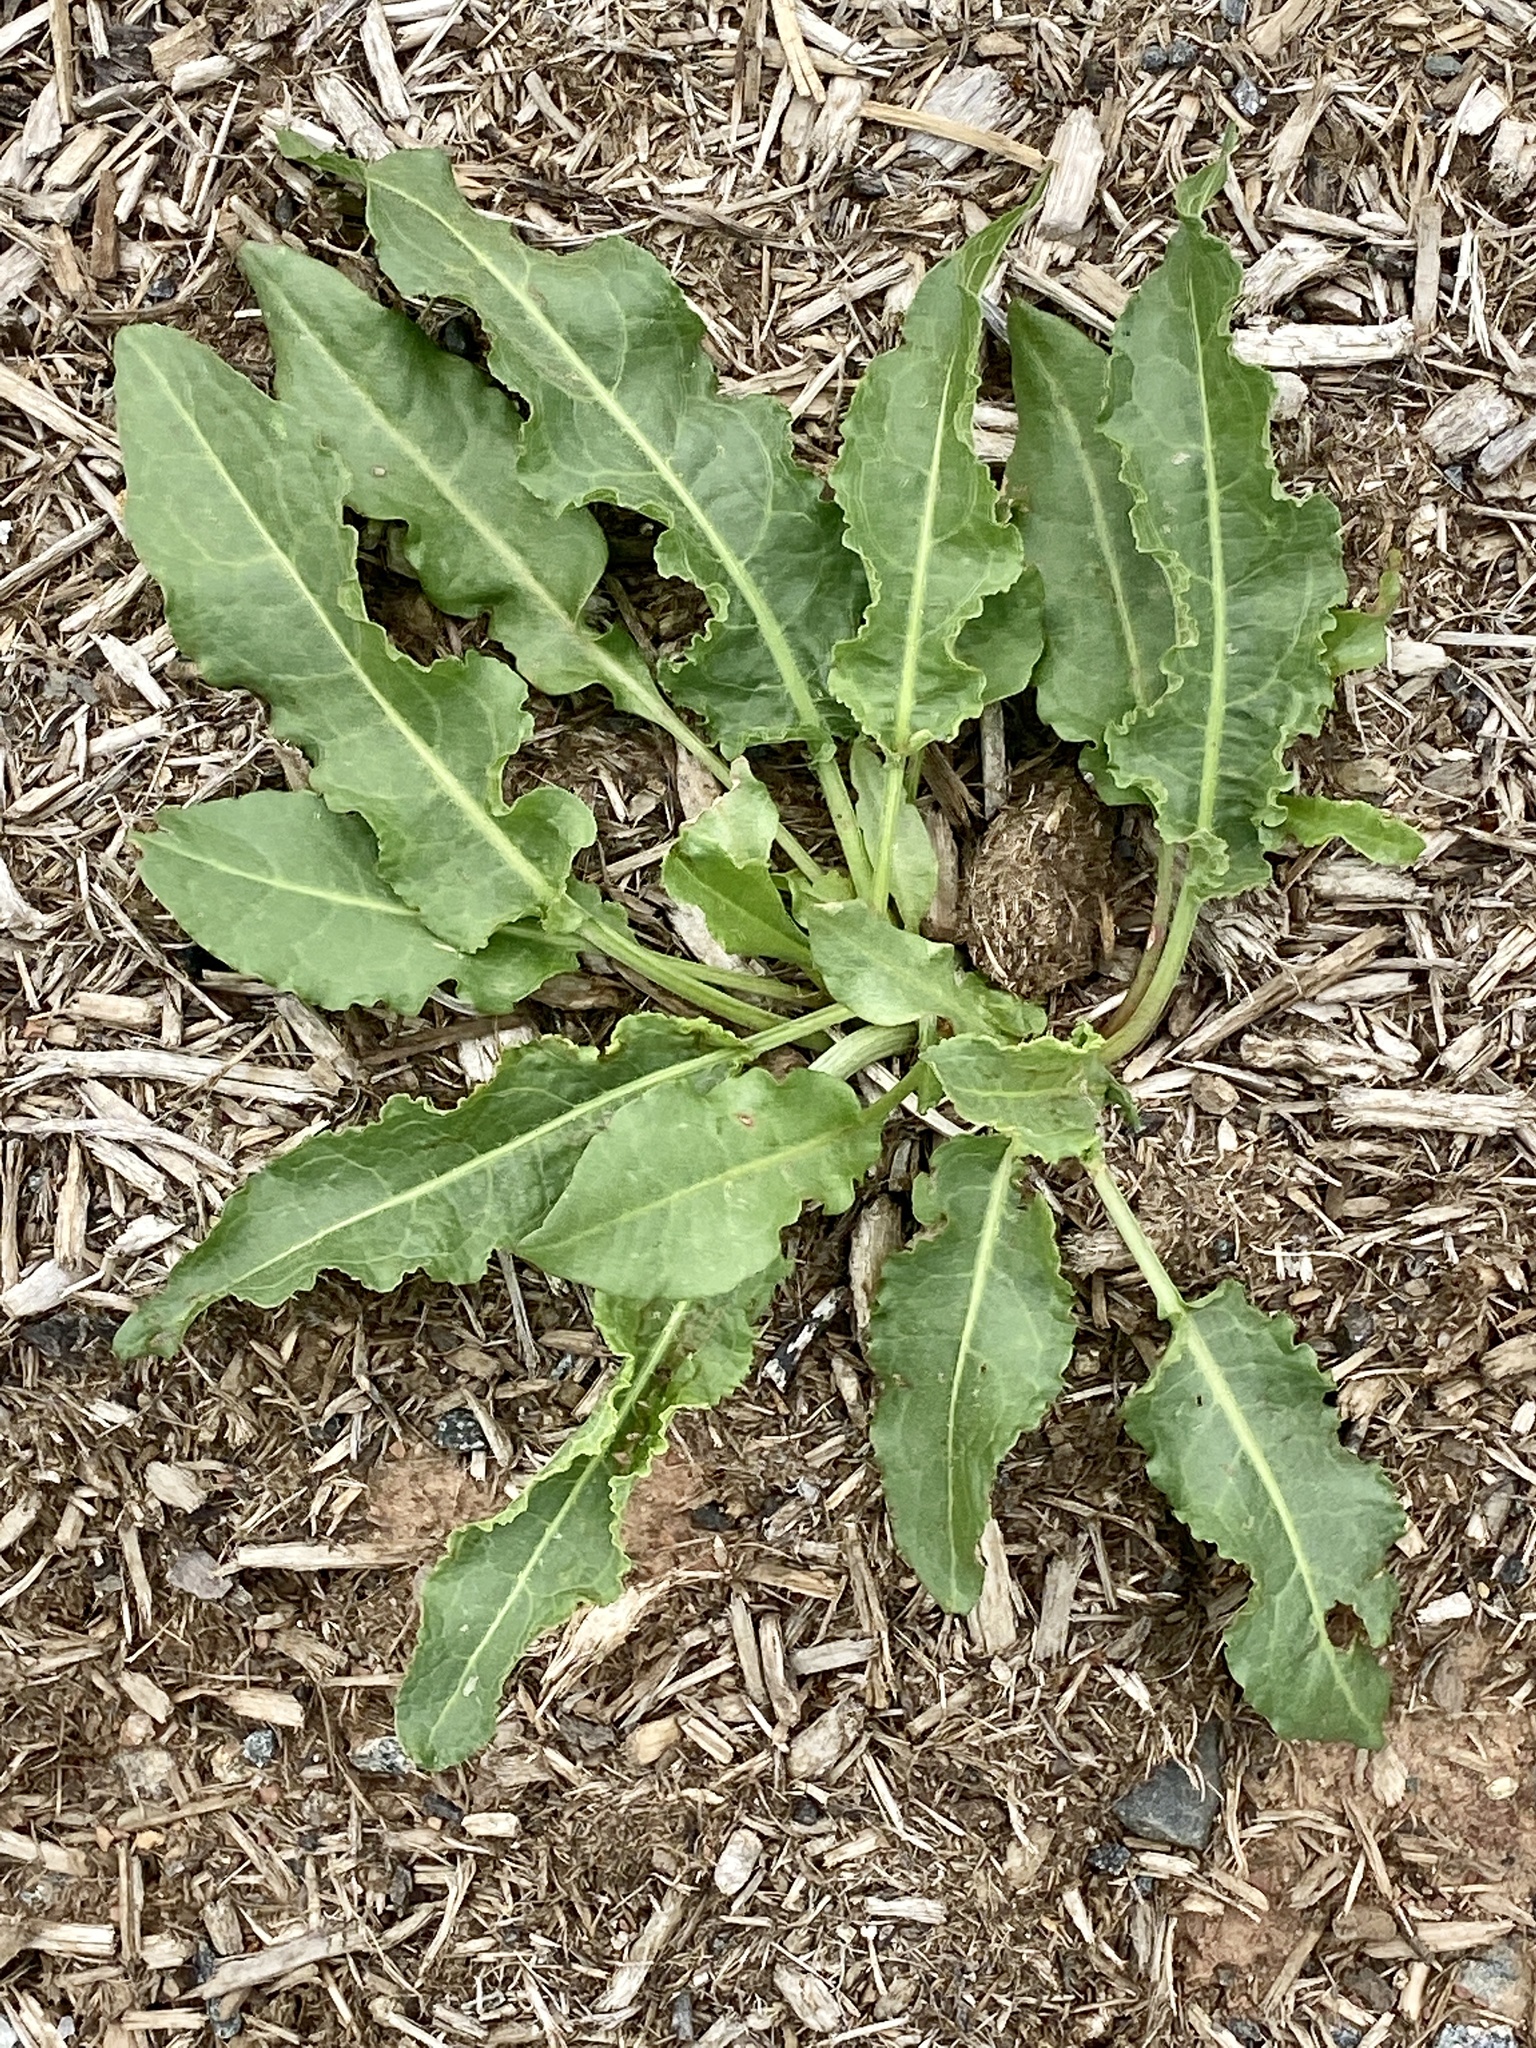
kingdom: Plantae
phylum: Tracheophyta
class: Magnoliopsida
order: Caryophyllales
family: Polygonaceae
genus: Rumex
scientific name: Rumex crispus
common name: Curled dock
